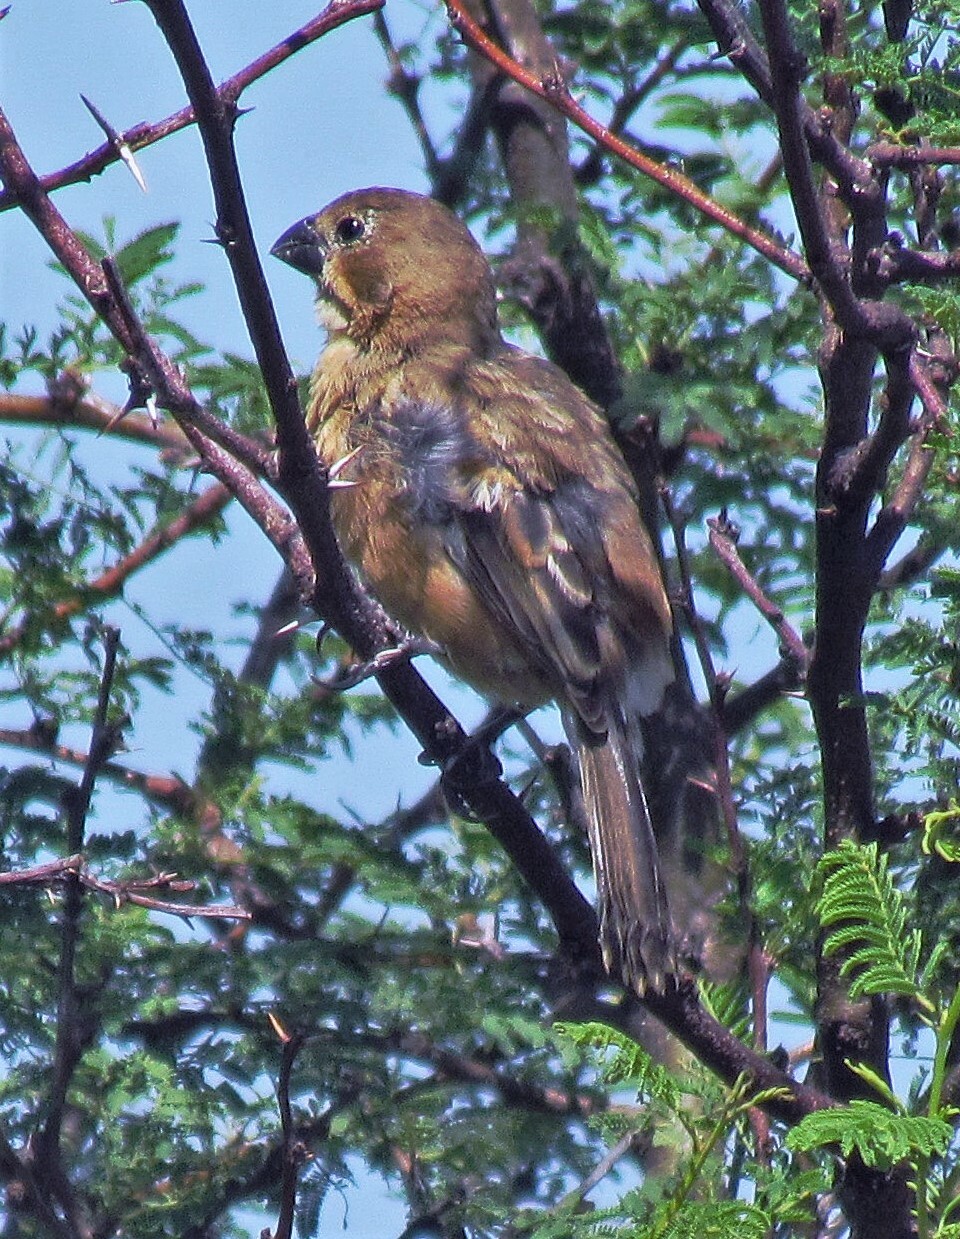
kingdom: Animalia
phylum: Chordata
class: Aves
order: Passeriformes
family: Thraupidae
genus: Sporophila
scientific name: Sporophila collaris
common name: Rusty-collared seedeater
